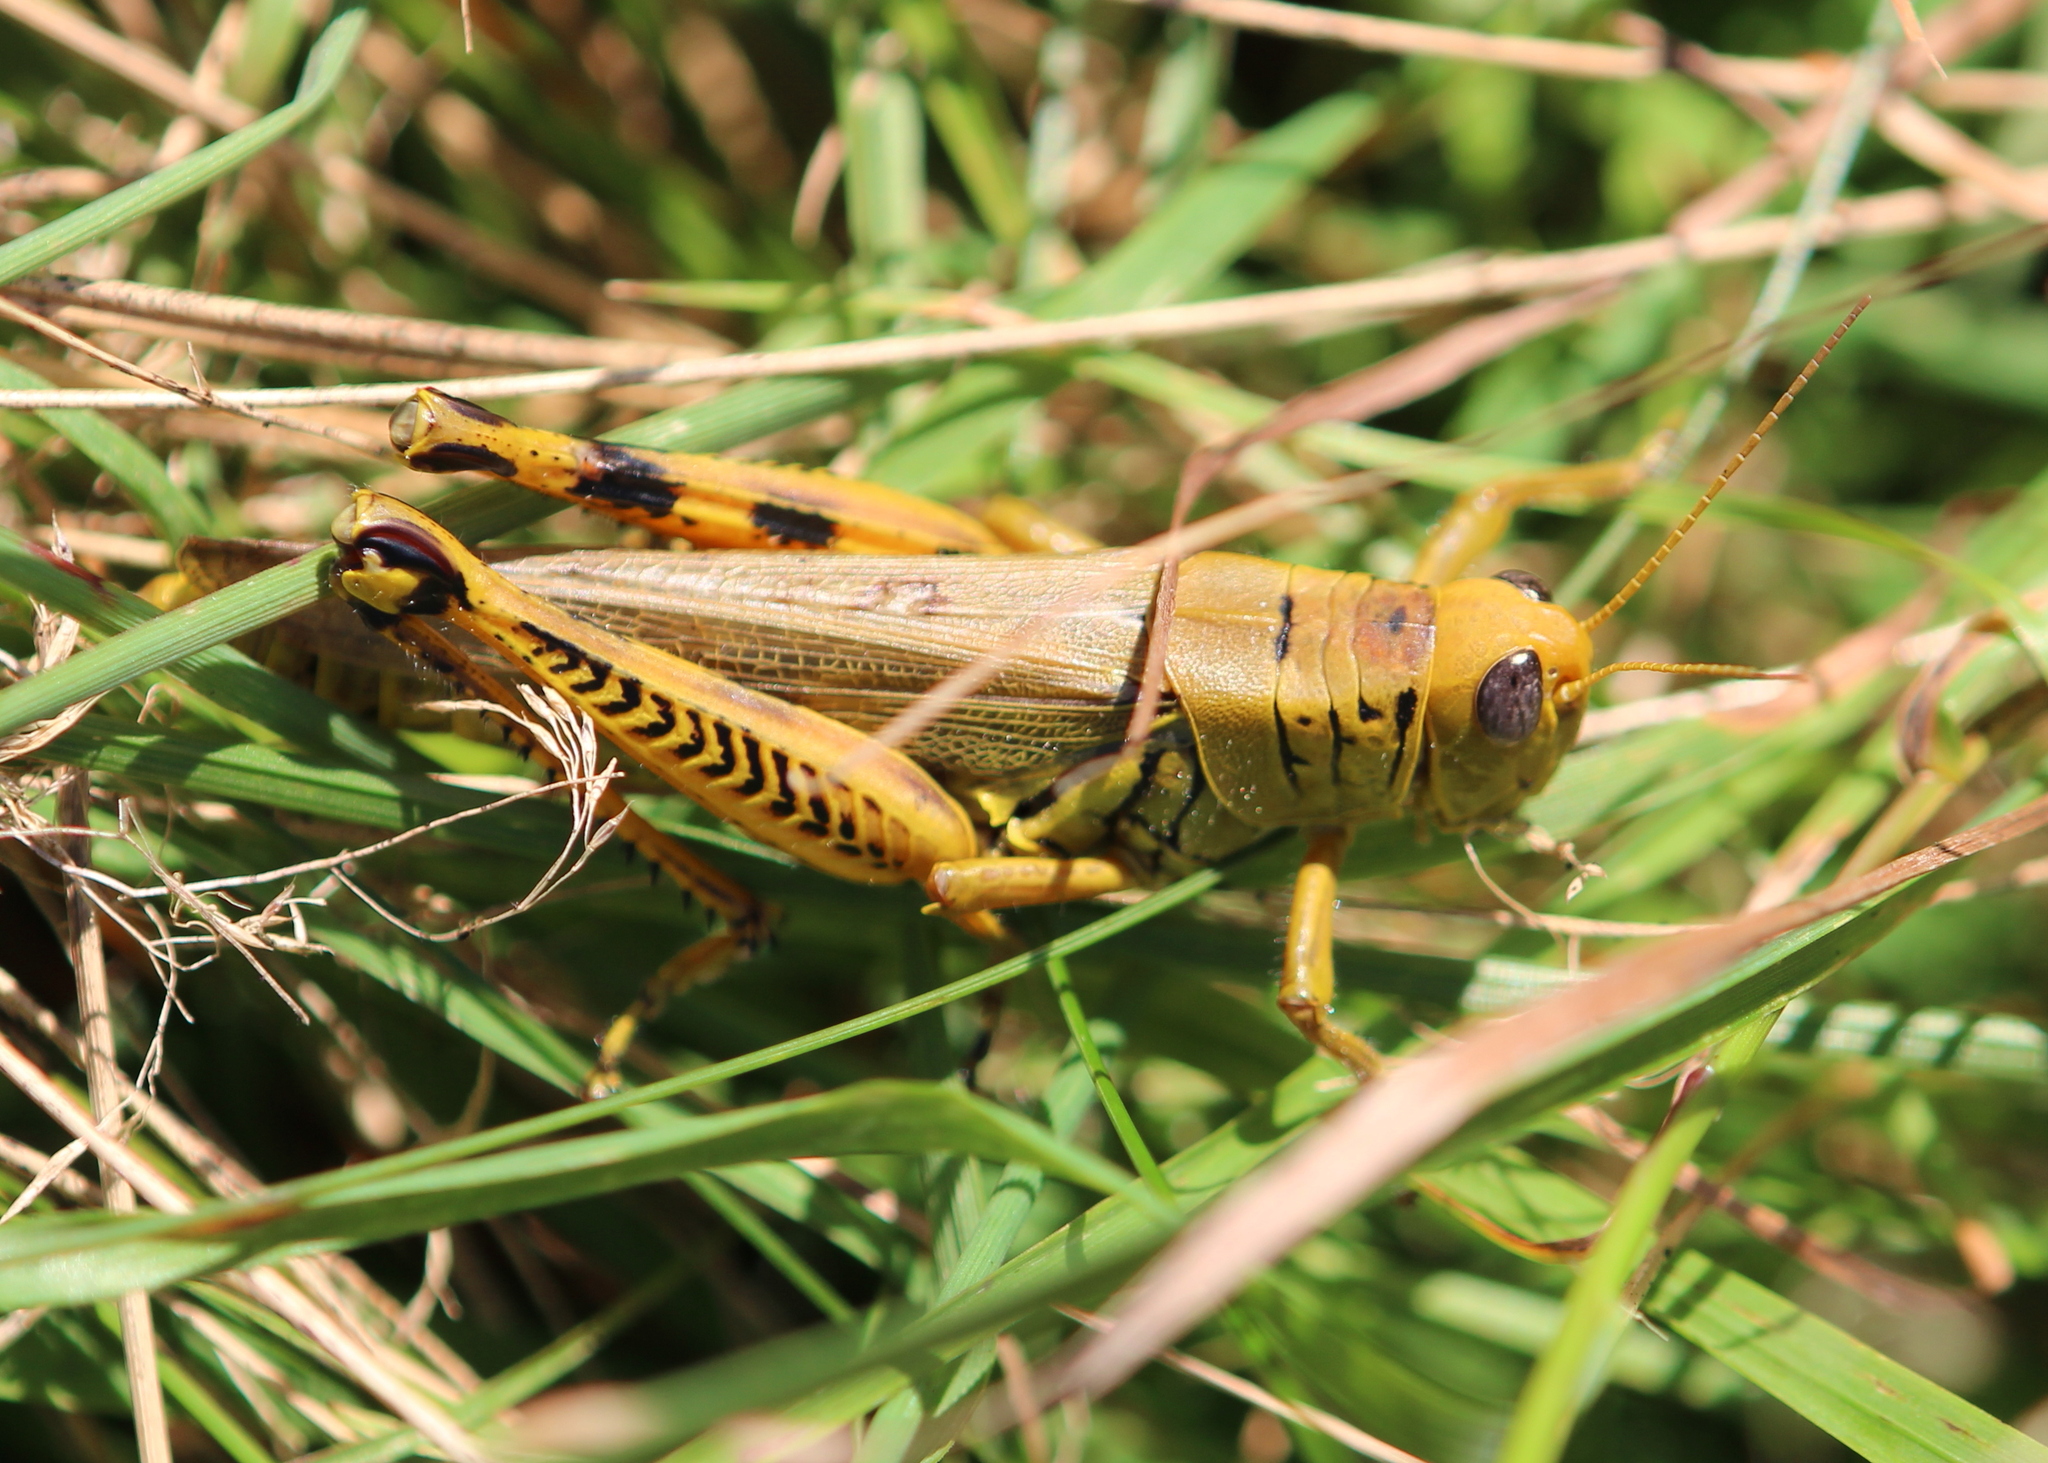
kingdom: Animalia
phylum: Arthropoda
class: Insecta
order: Orthoptera
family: Acrididae
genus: Melanoplus
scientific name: Melanoplus differentialis
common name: Differential grasshopper
